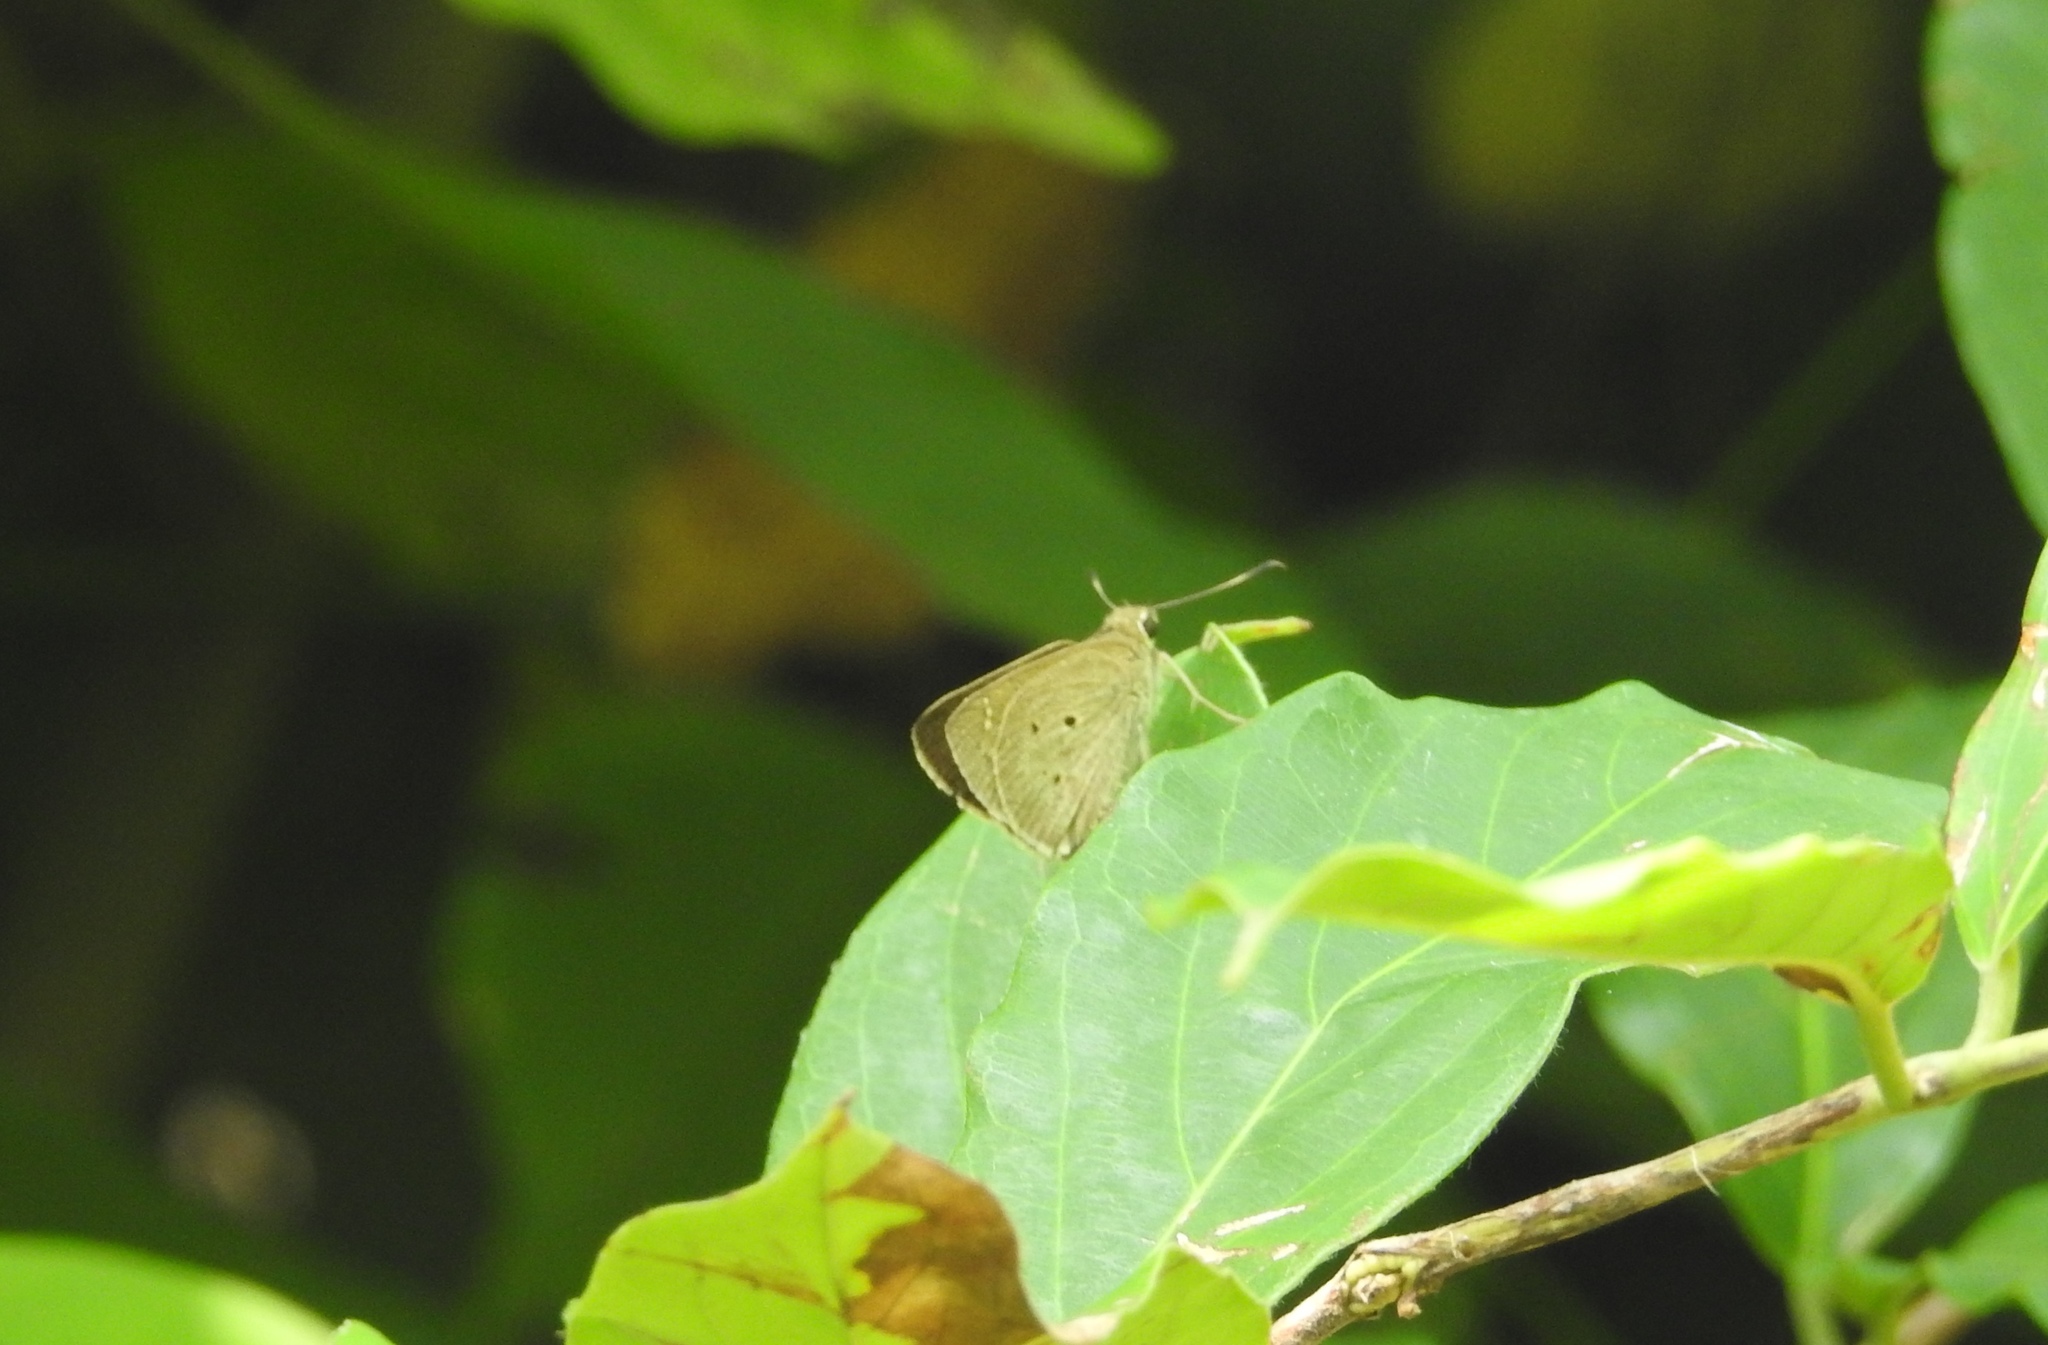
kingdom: Animalia
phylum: Arthropoda
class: Insecta
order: Lepidoptera
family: Hesperiidae
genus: Suastus
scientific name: Suastus gremius
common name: Indian palm bob
